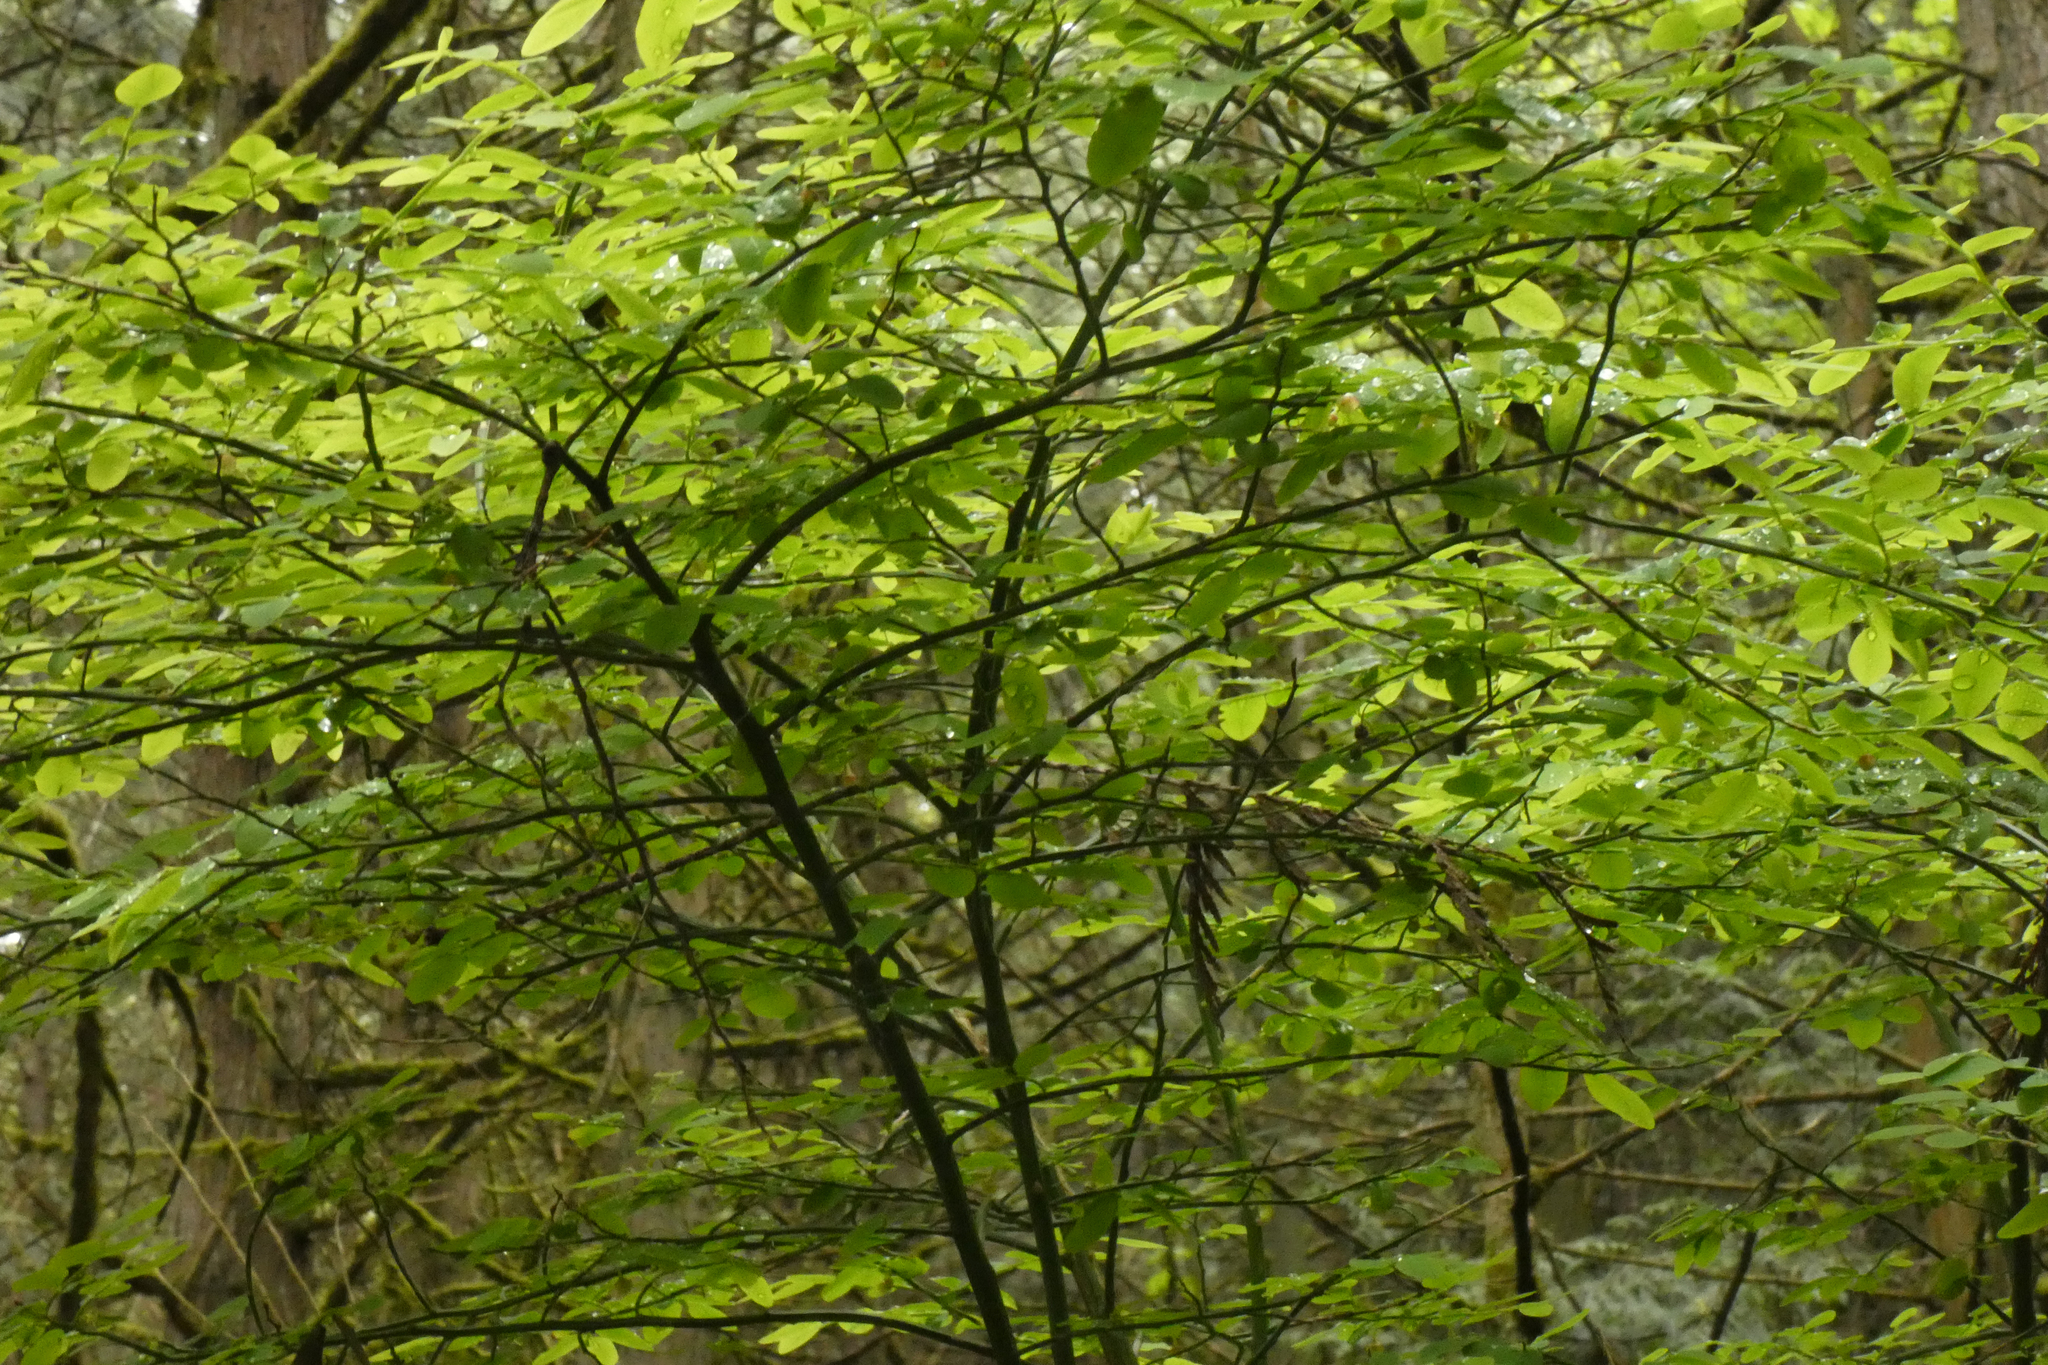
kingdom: Plantae
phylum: Tracheophyta
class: Magnoliopsida
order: Ericales
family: Ericaceae
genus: Vaccinium
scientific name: Vaccinium parvifolium
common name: Red-huckleberry
